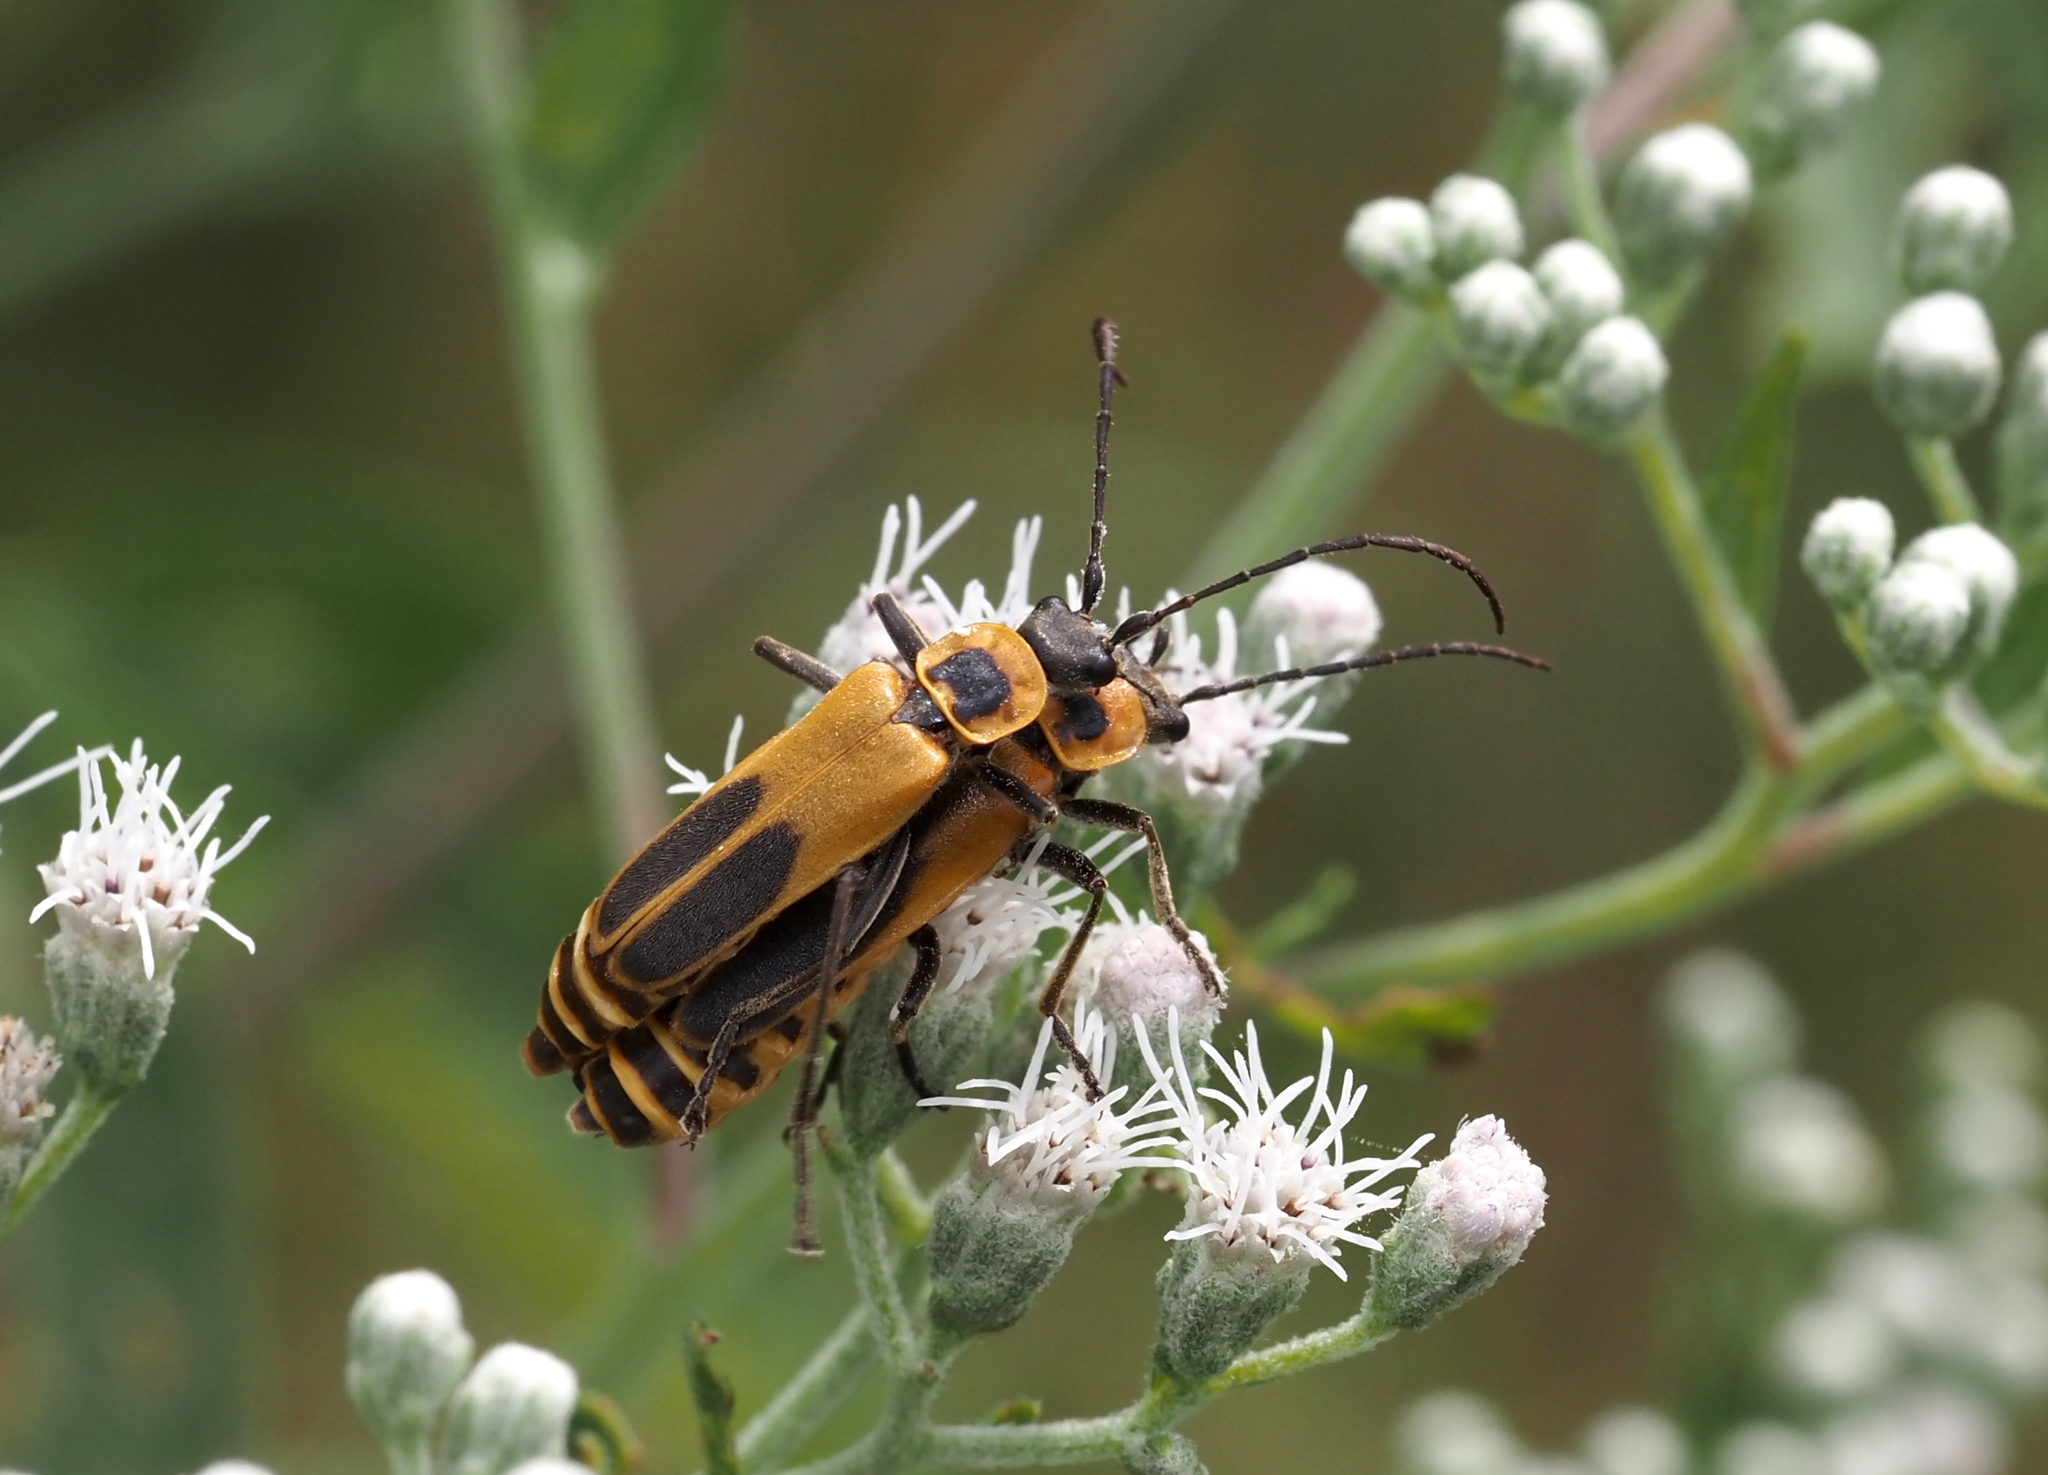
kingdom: Animalia
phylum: Arthropoda
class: Insecta
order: Coleoptera
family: Cantharidae
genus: Chauliognathus
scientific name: Chauliognathus pensylvanicus
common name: Goldenrod soldier beetle
